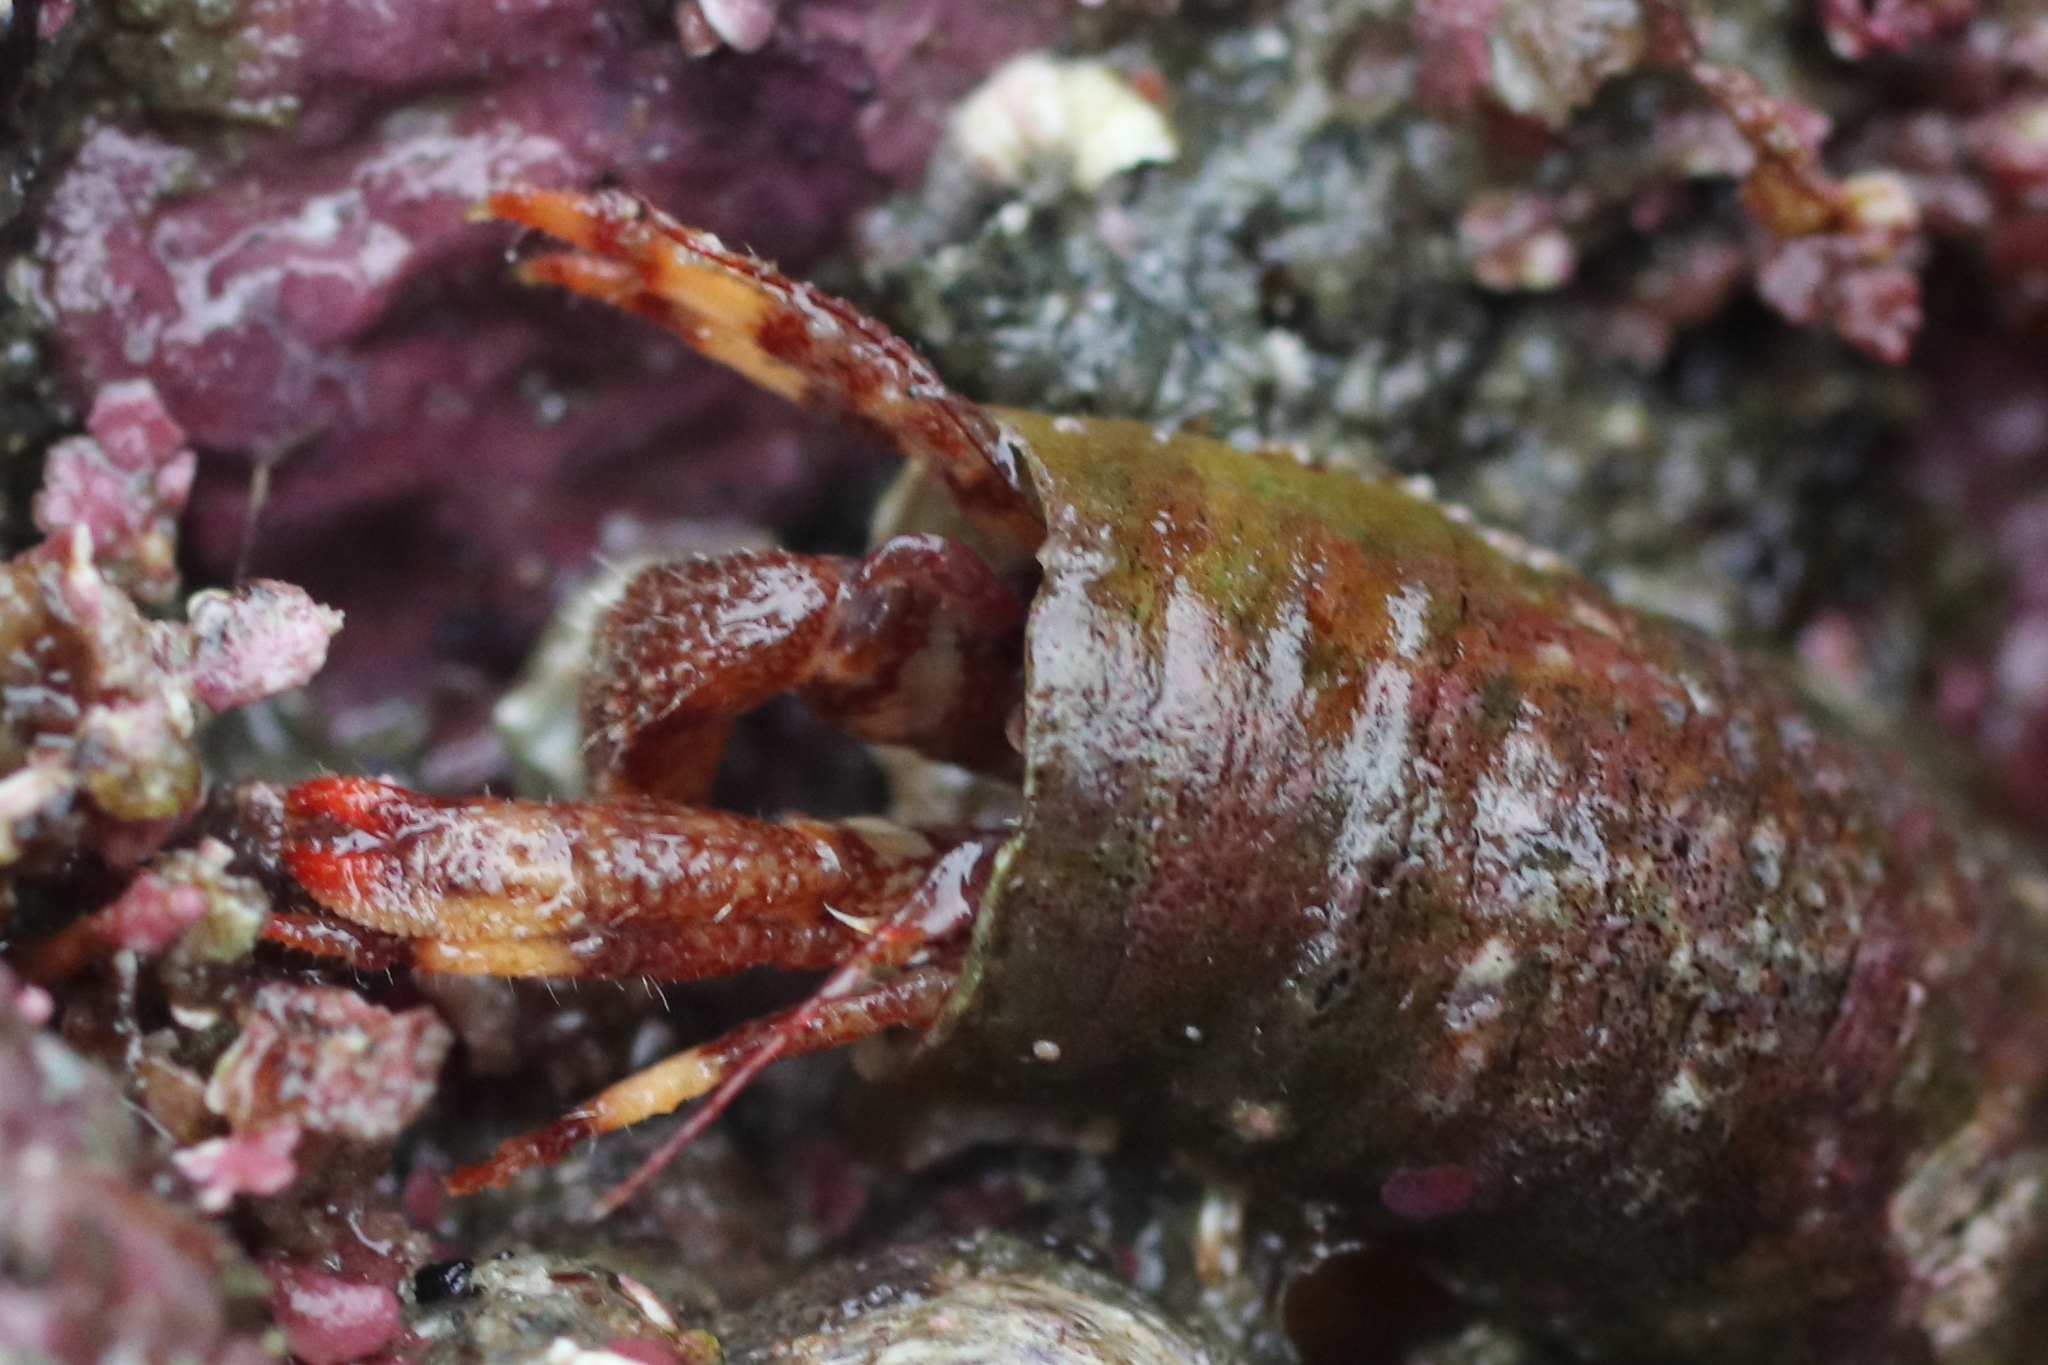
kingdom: Animalia
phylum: Arthropoda
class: Malacostraca
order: Decapoda
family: Paguridae
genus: Discorsopagurus
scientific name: Discorsopagurus schmitti
